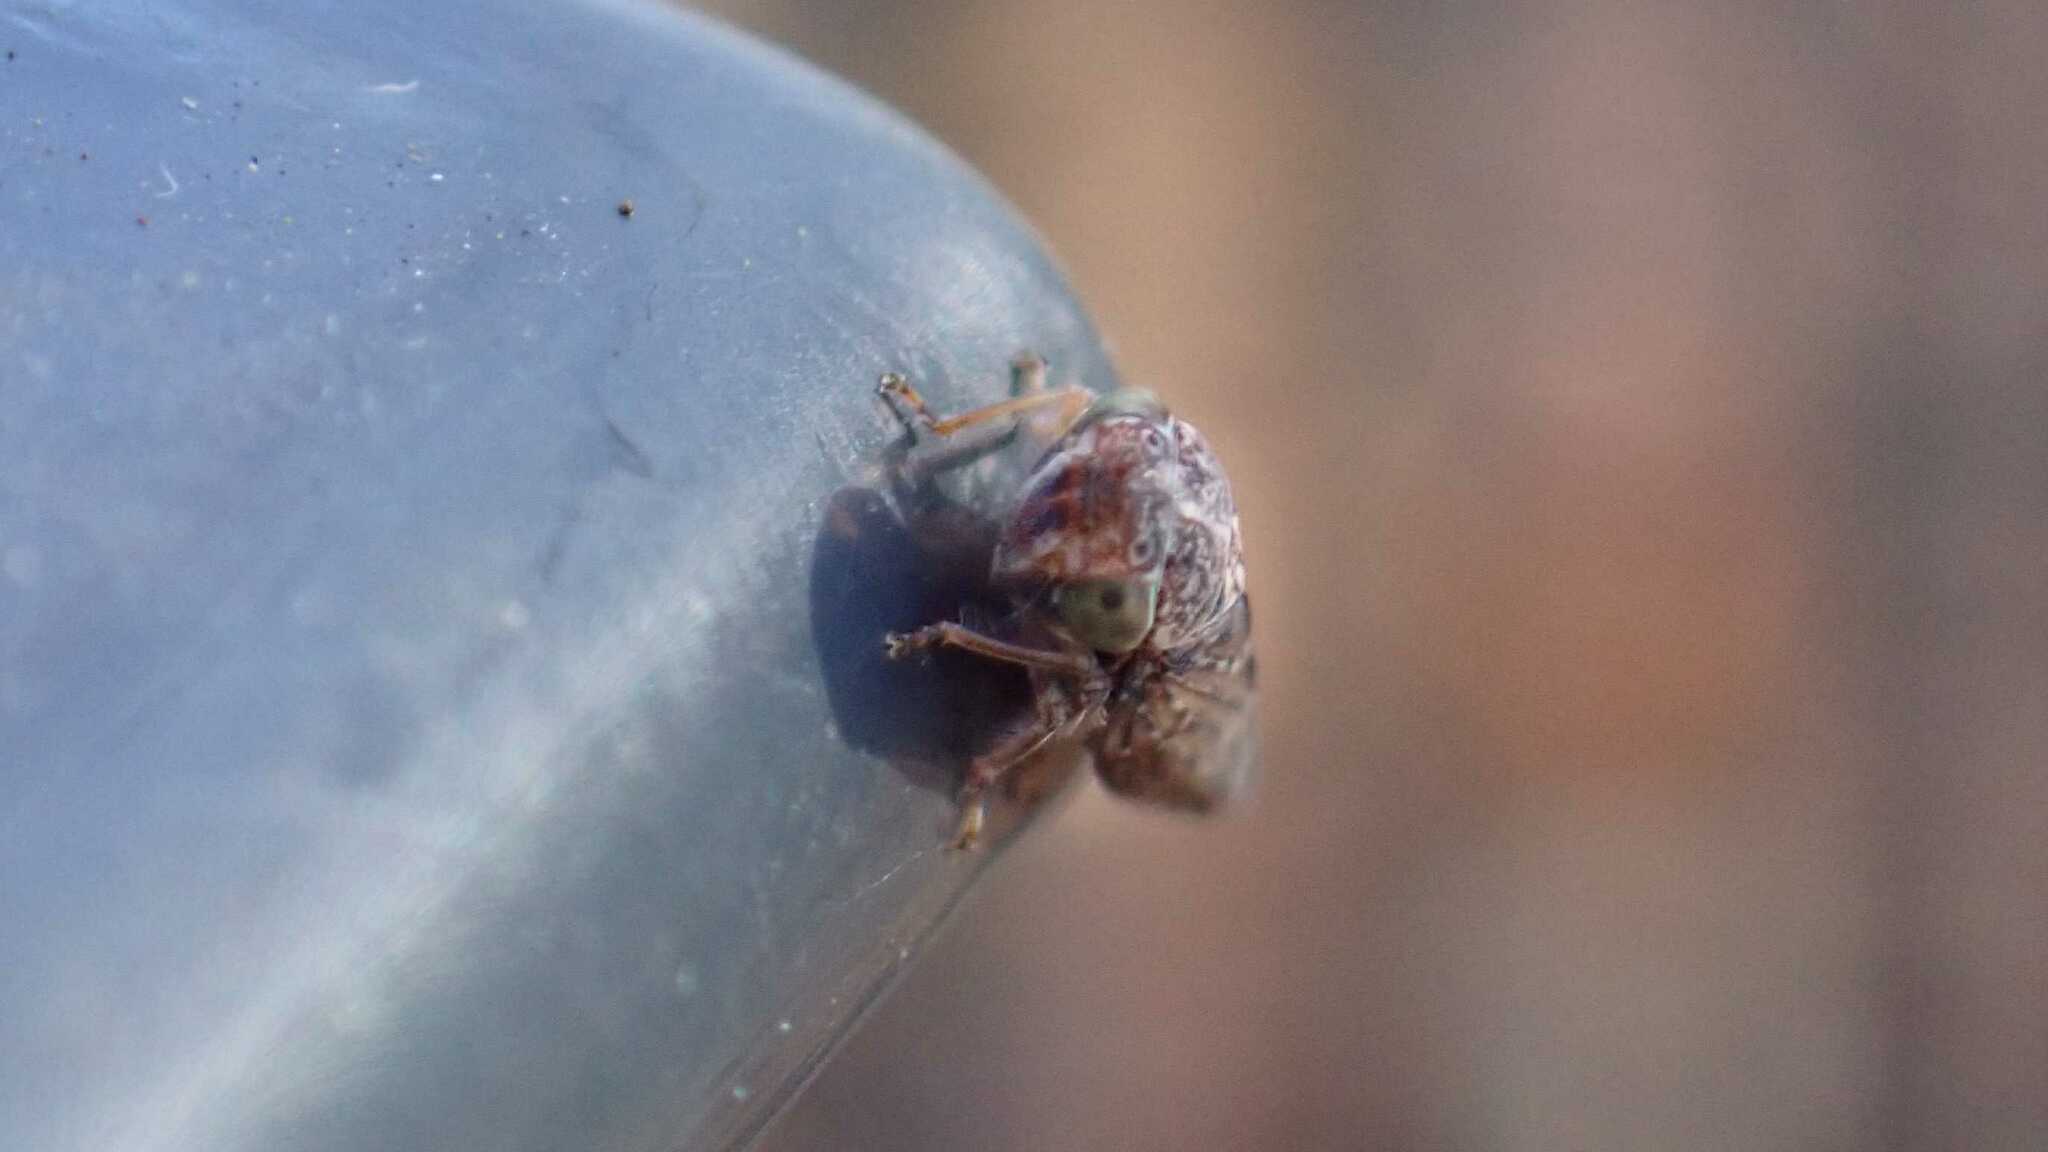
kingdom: Animalia
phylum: Arthropoda
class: Insecta
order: Hemiptera
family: Cicadellidae
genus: Acericerus
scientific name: Acericerus ribauti
